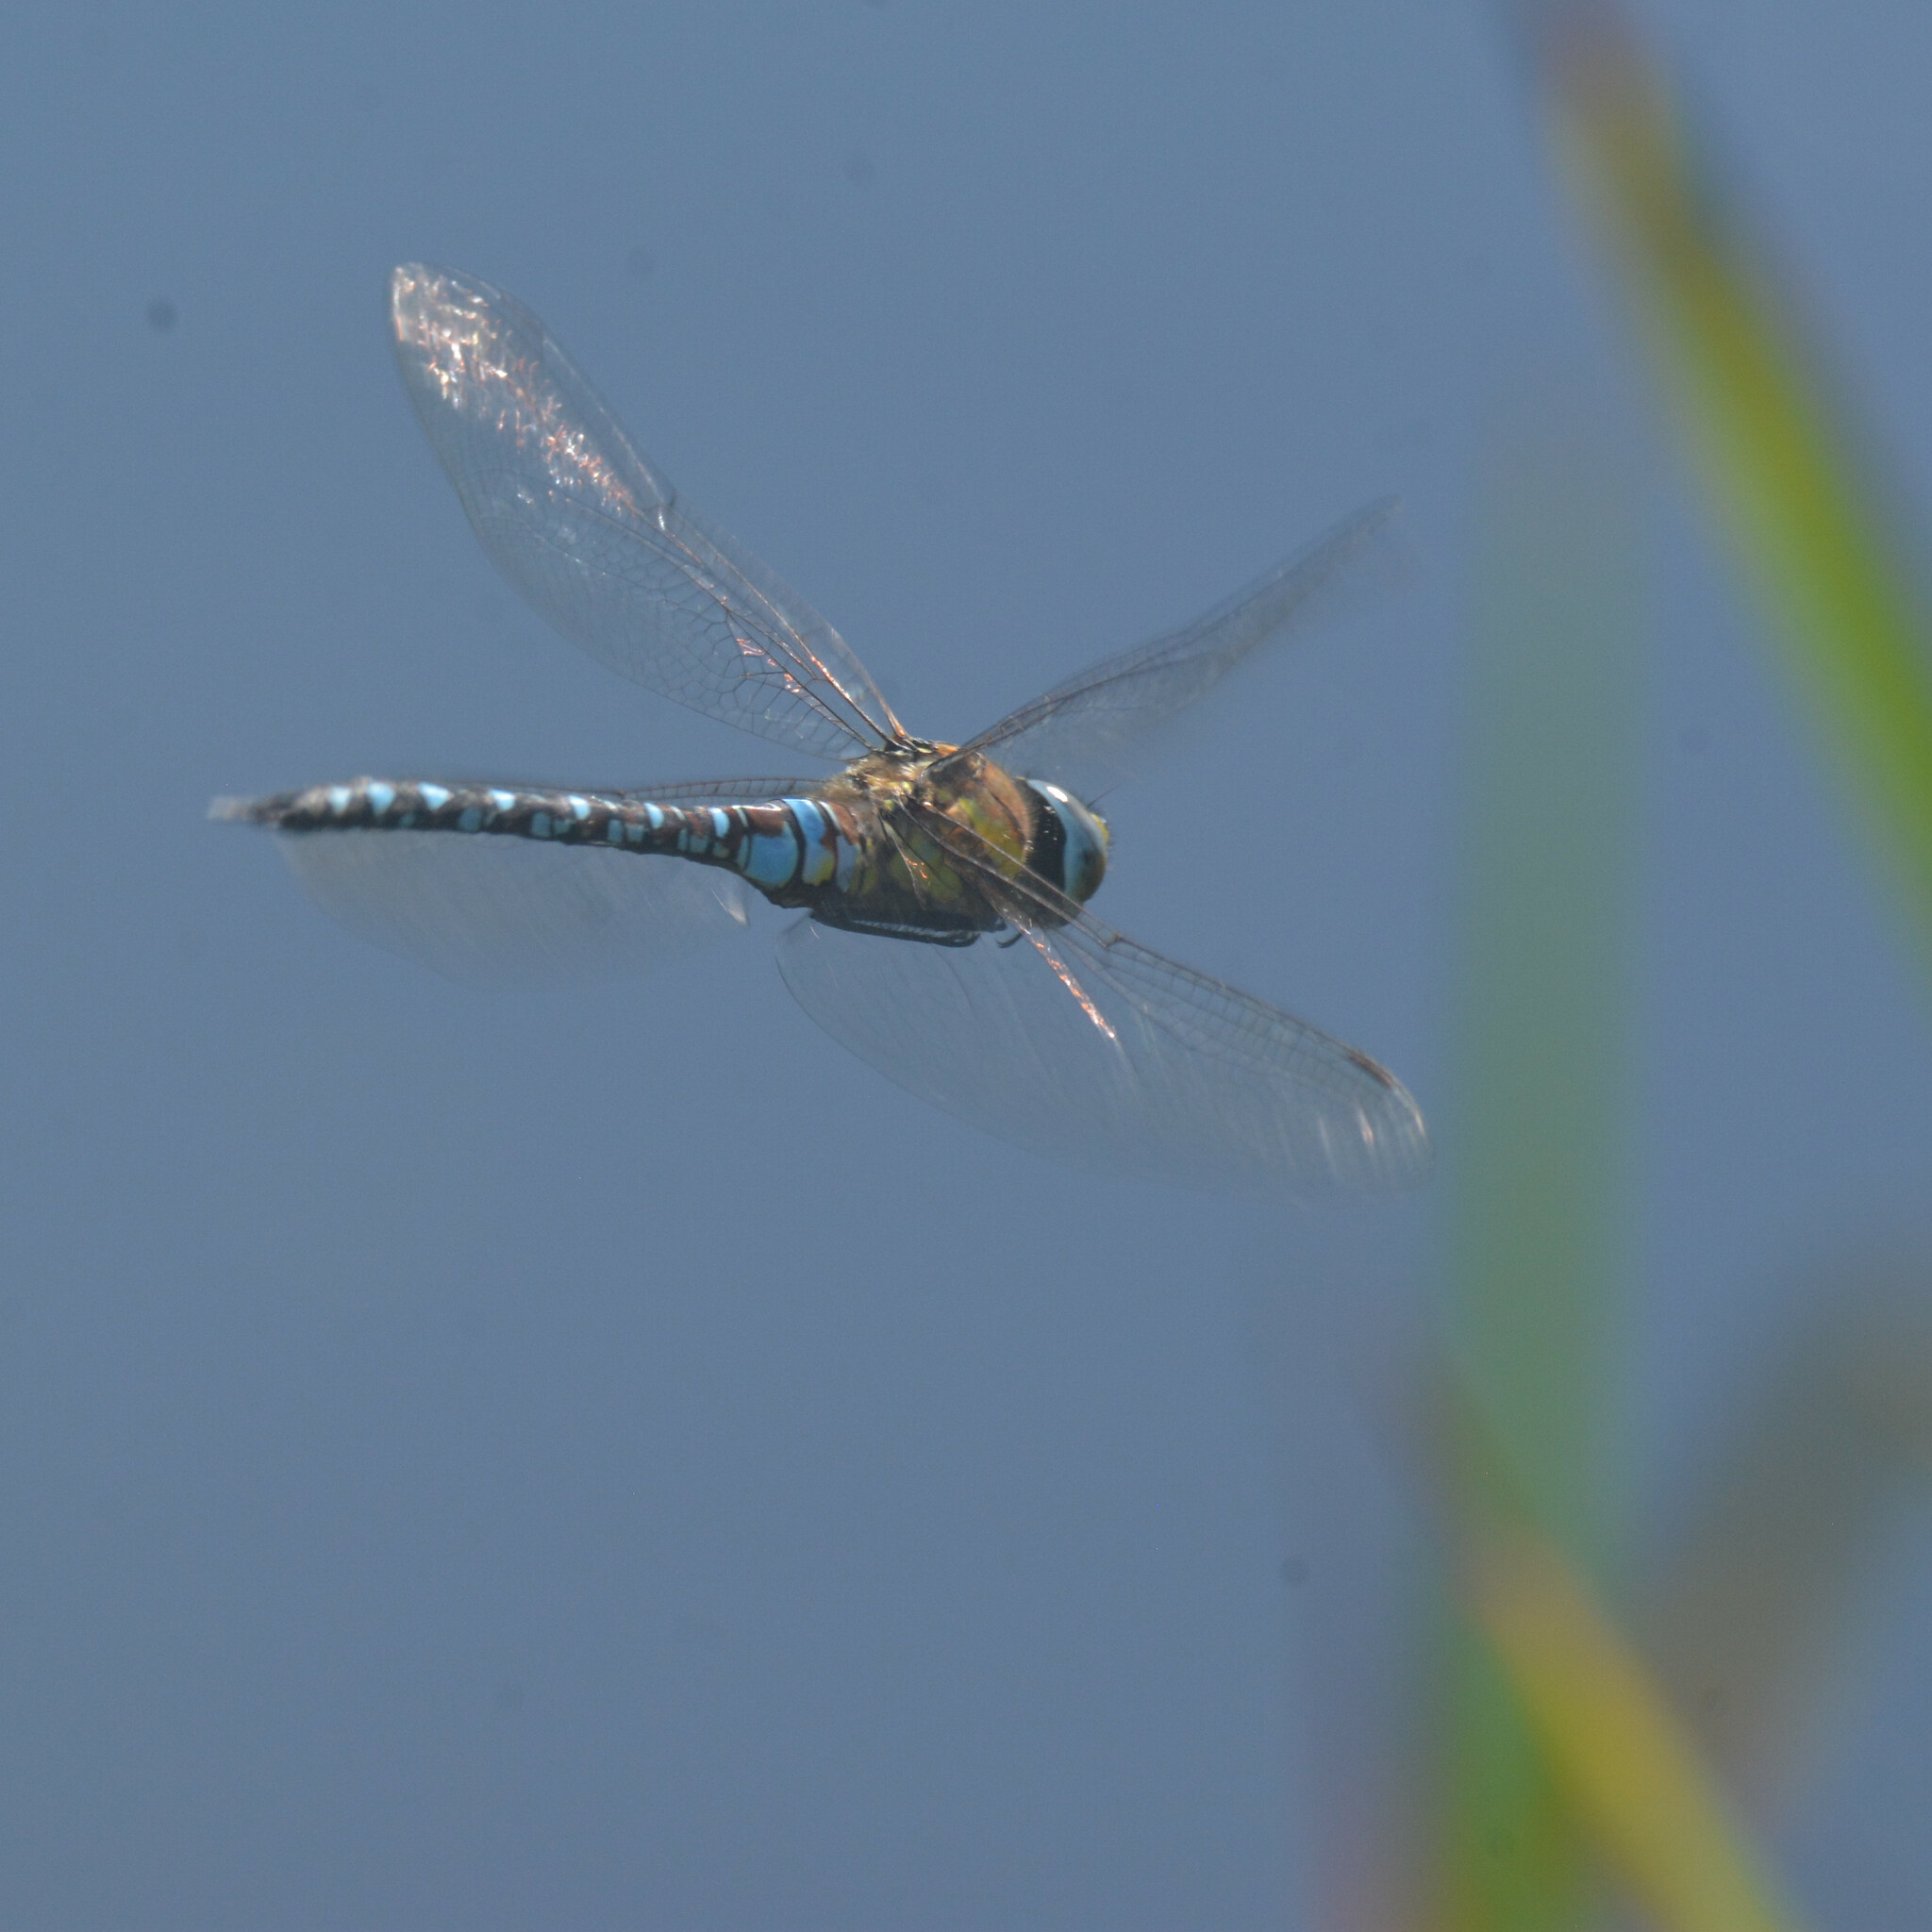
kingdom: Animalia
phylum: Arthropoda
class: Insecta
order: Odonata
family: Aeshnidae
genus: Aeshna
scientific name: Aeshna mixta
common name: Migrant hawker
